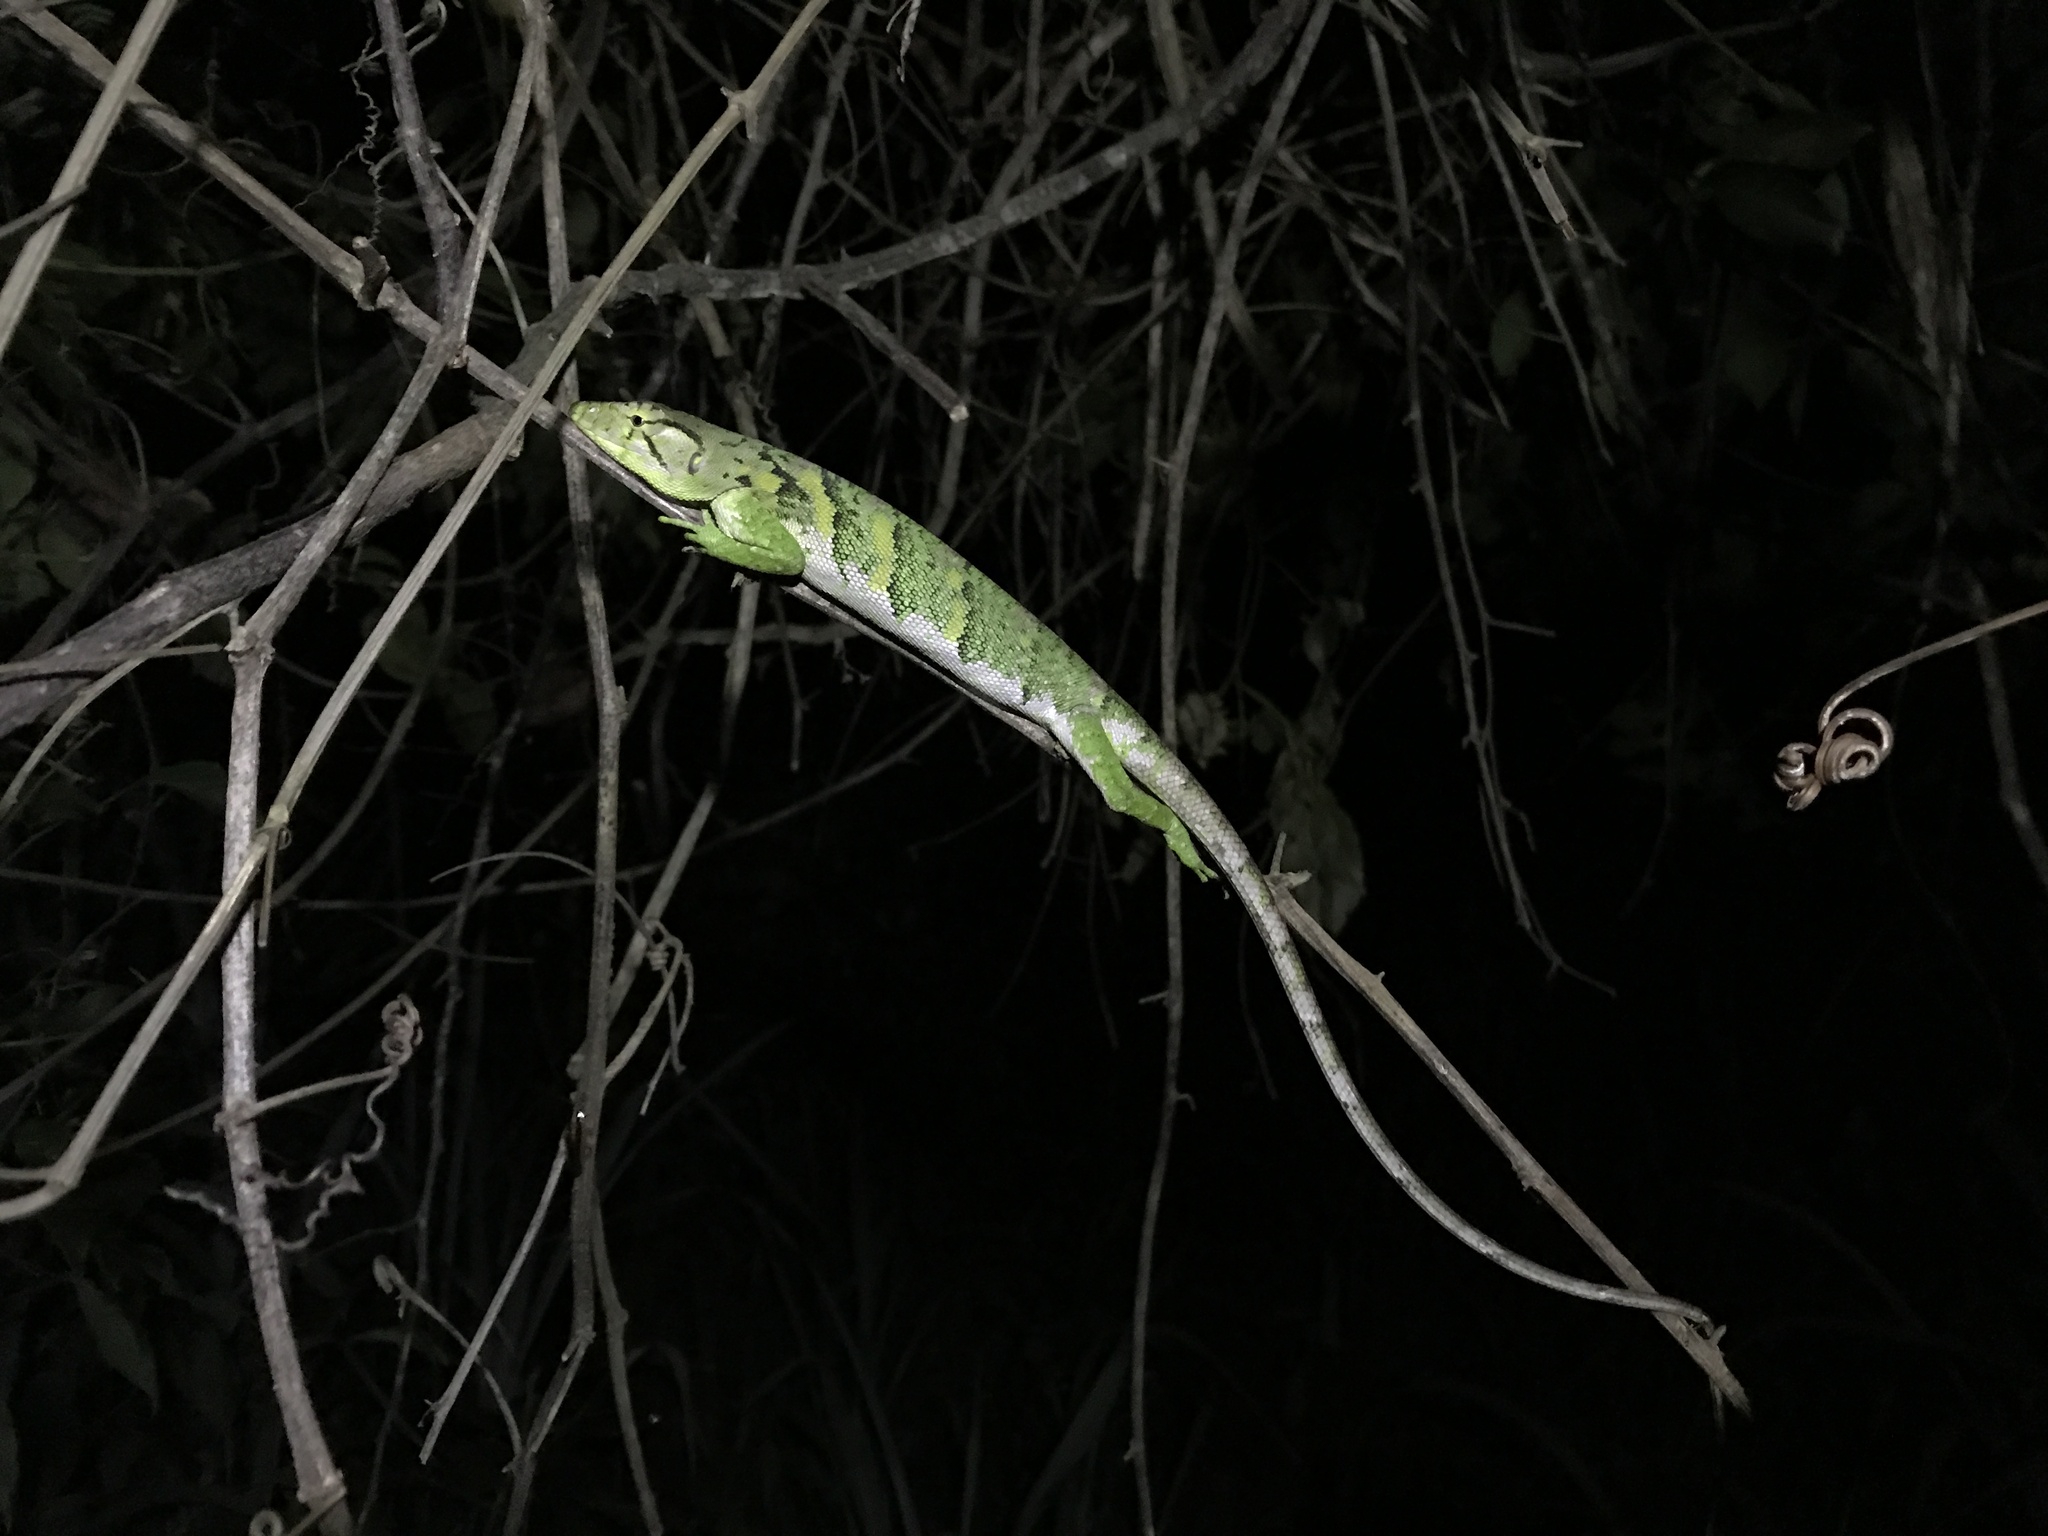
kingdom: Animalia
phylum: Chordata
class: Squamata
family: Polychrotidae
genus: Polychrus
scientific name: Polychrus marmoratus
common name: Many-colored bush anole
